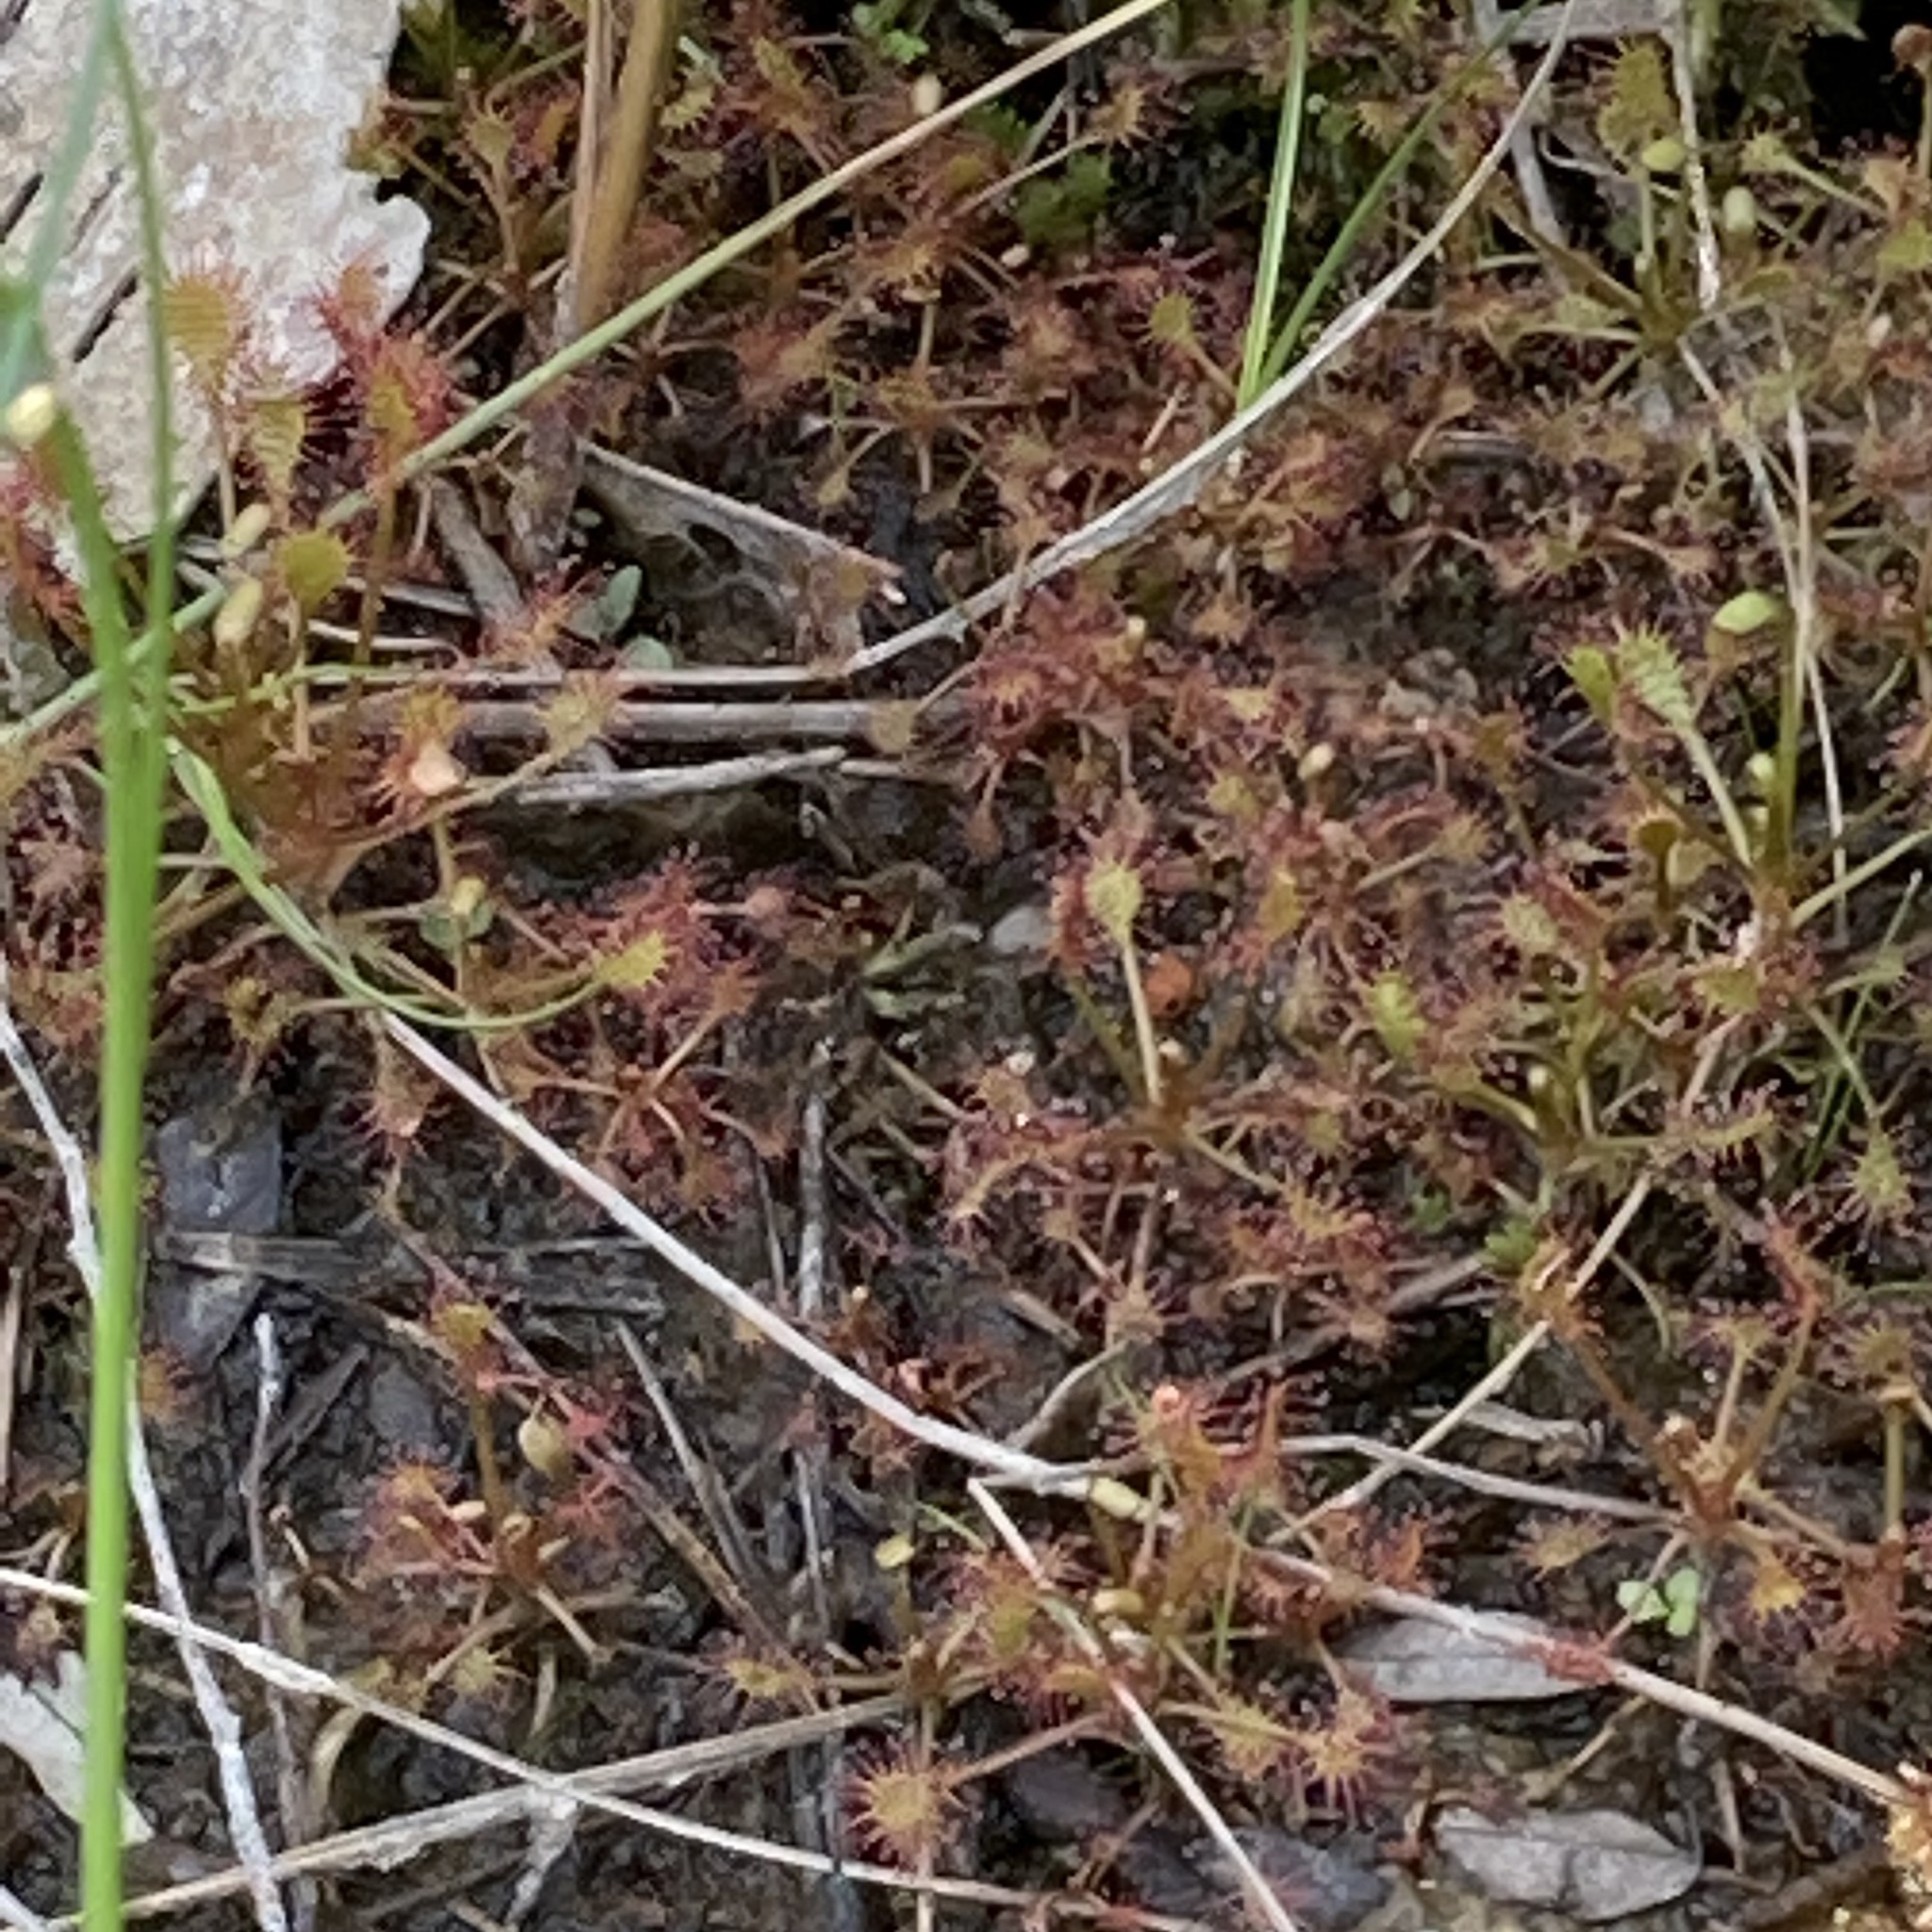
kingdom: Plantae
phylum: Tracheophyta
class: Magnoliopsida
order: Caryophyllales
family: Droseraceae
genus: Drosera
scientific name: Drosera rotundifolia
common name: Round-leaved sundew
